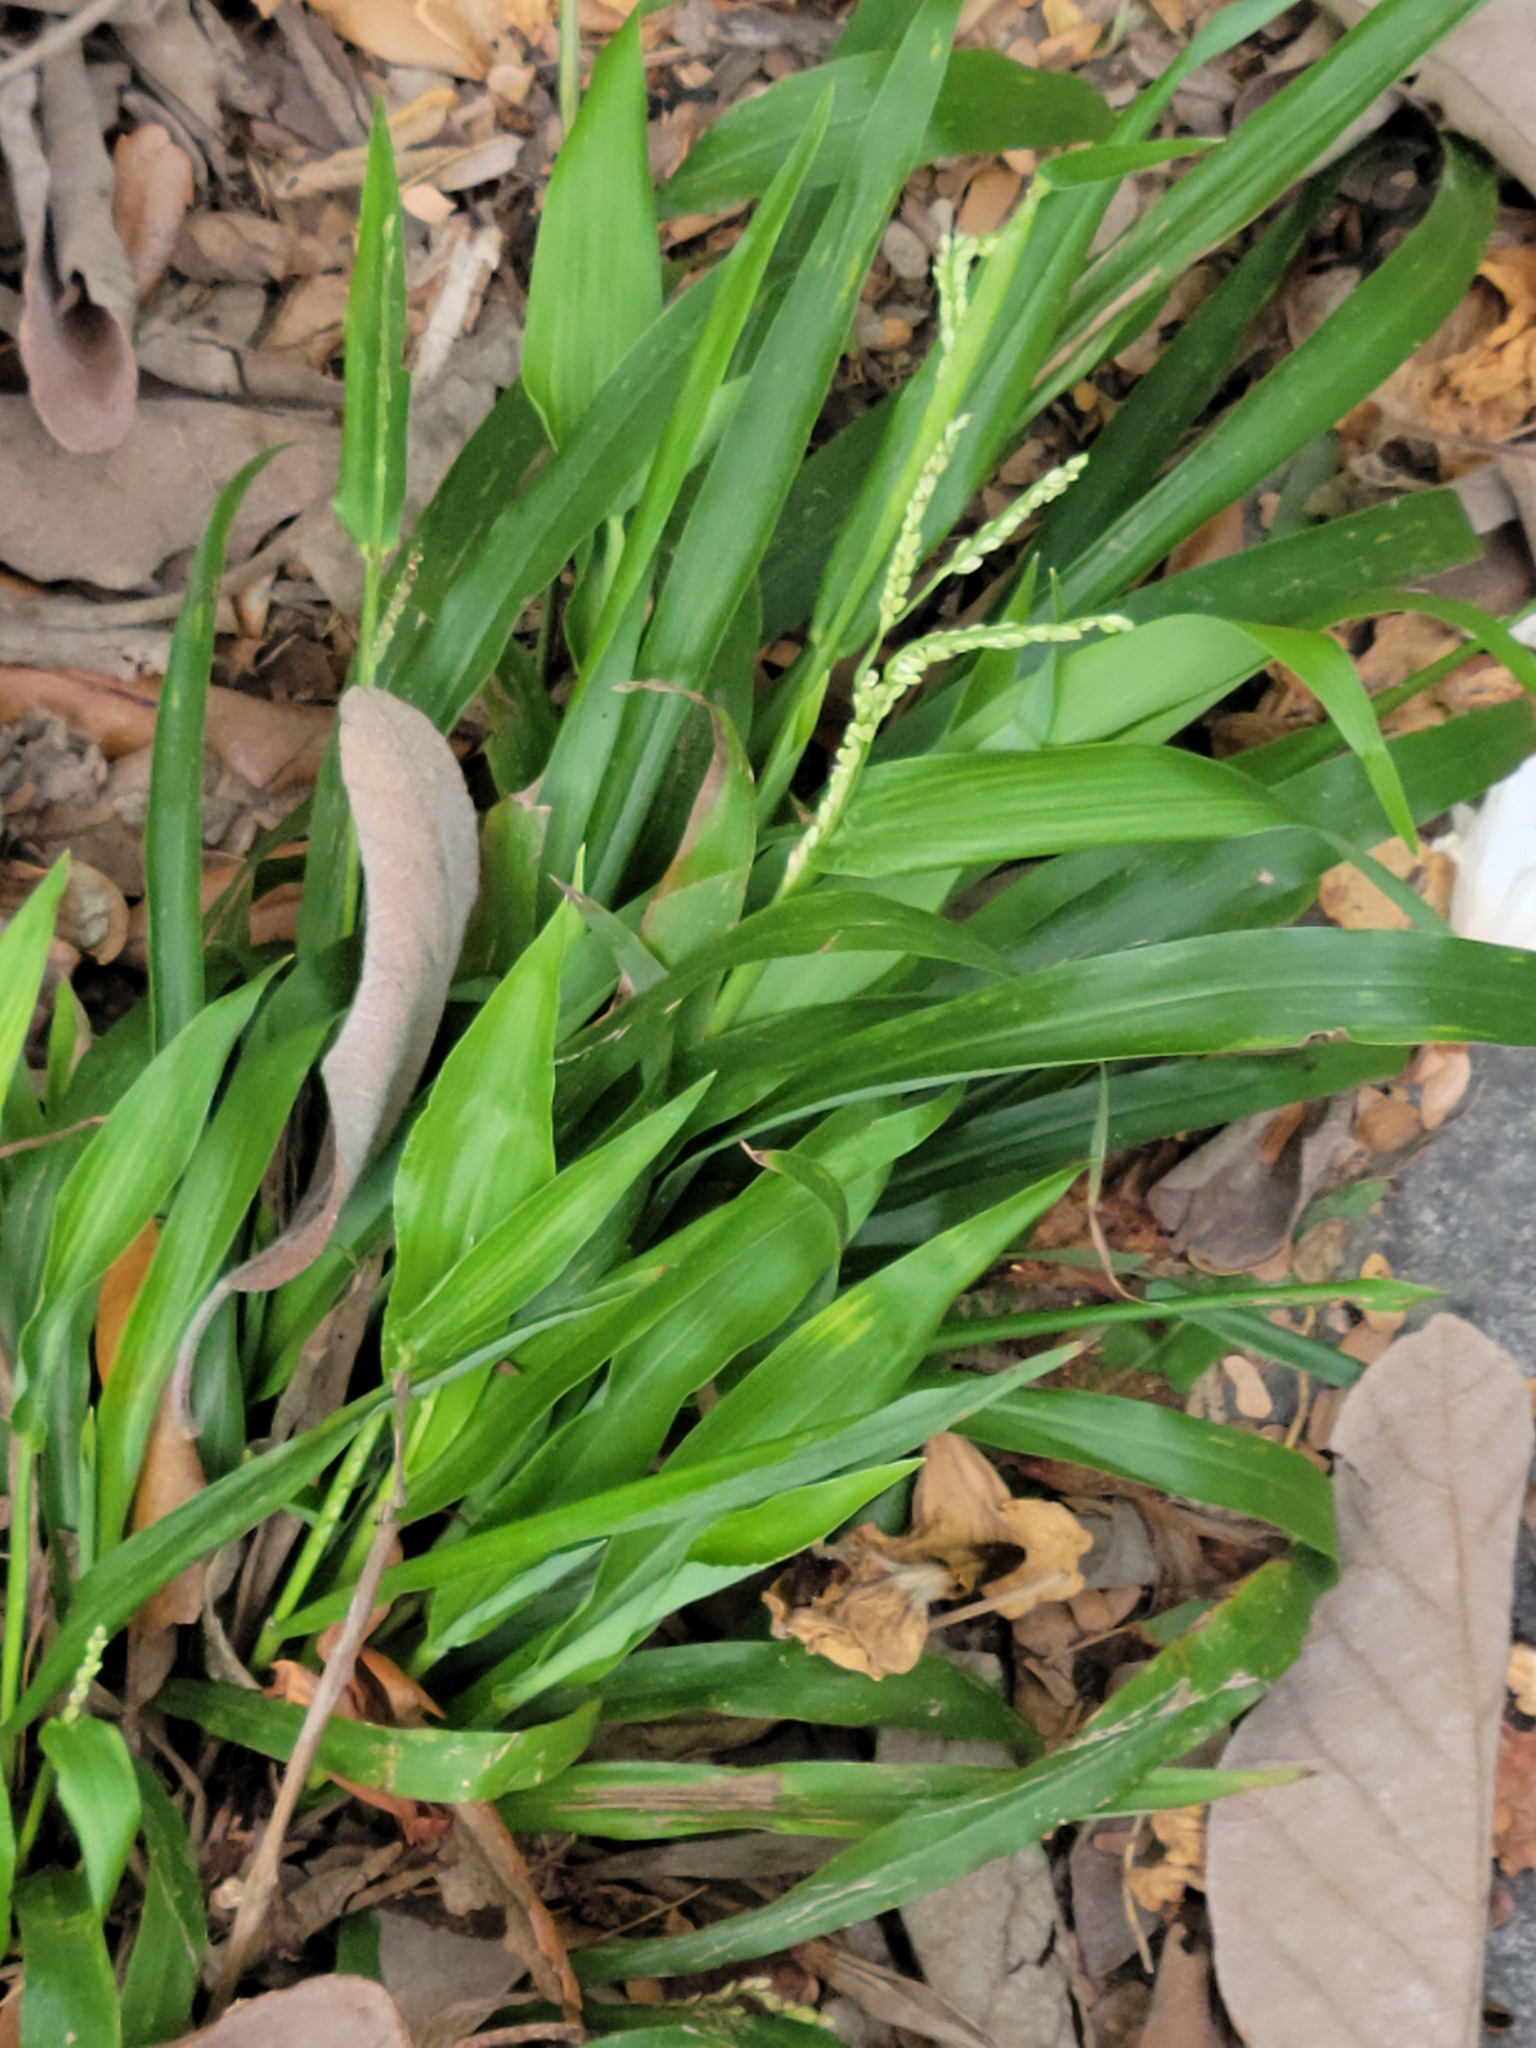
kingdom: Plantae
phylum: Tracheophyta
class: Liliopsida
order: Poales
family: Poaceae
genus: Paspalum
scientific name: Paspalum langei
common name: Rusty-seed paspalum
